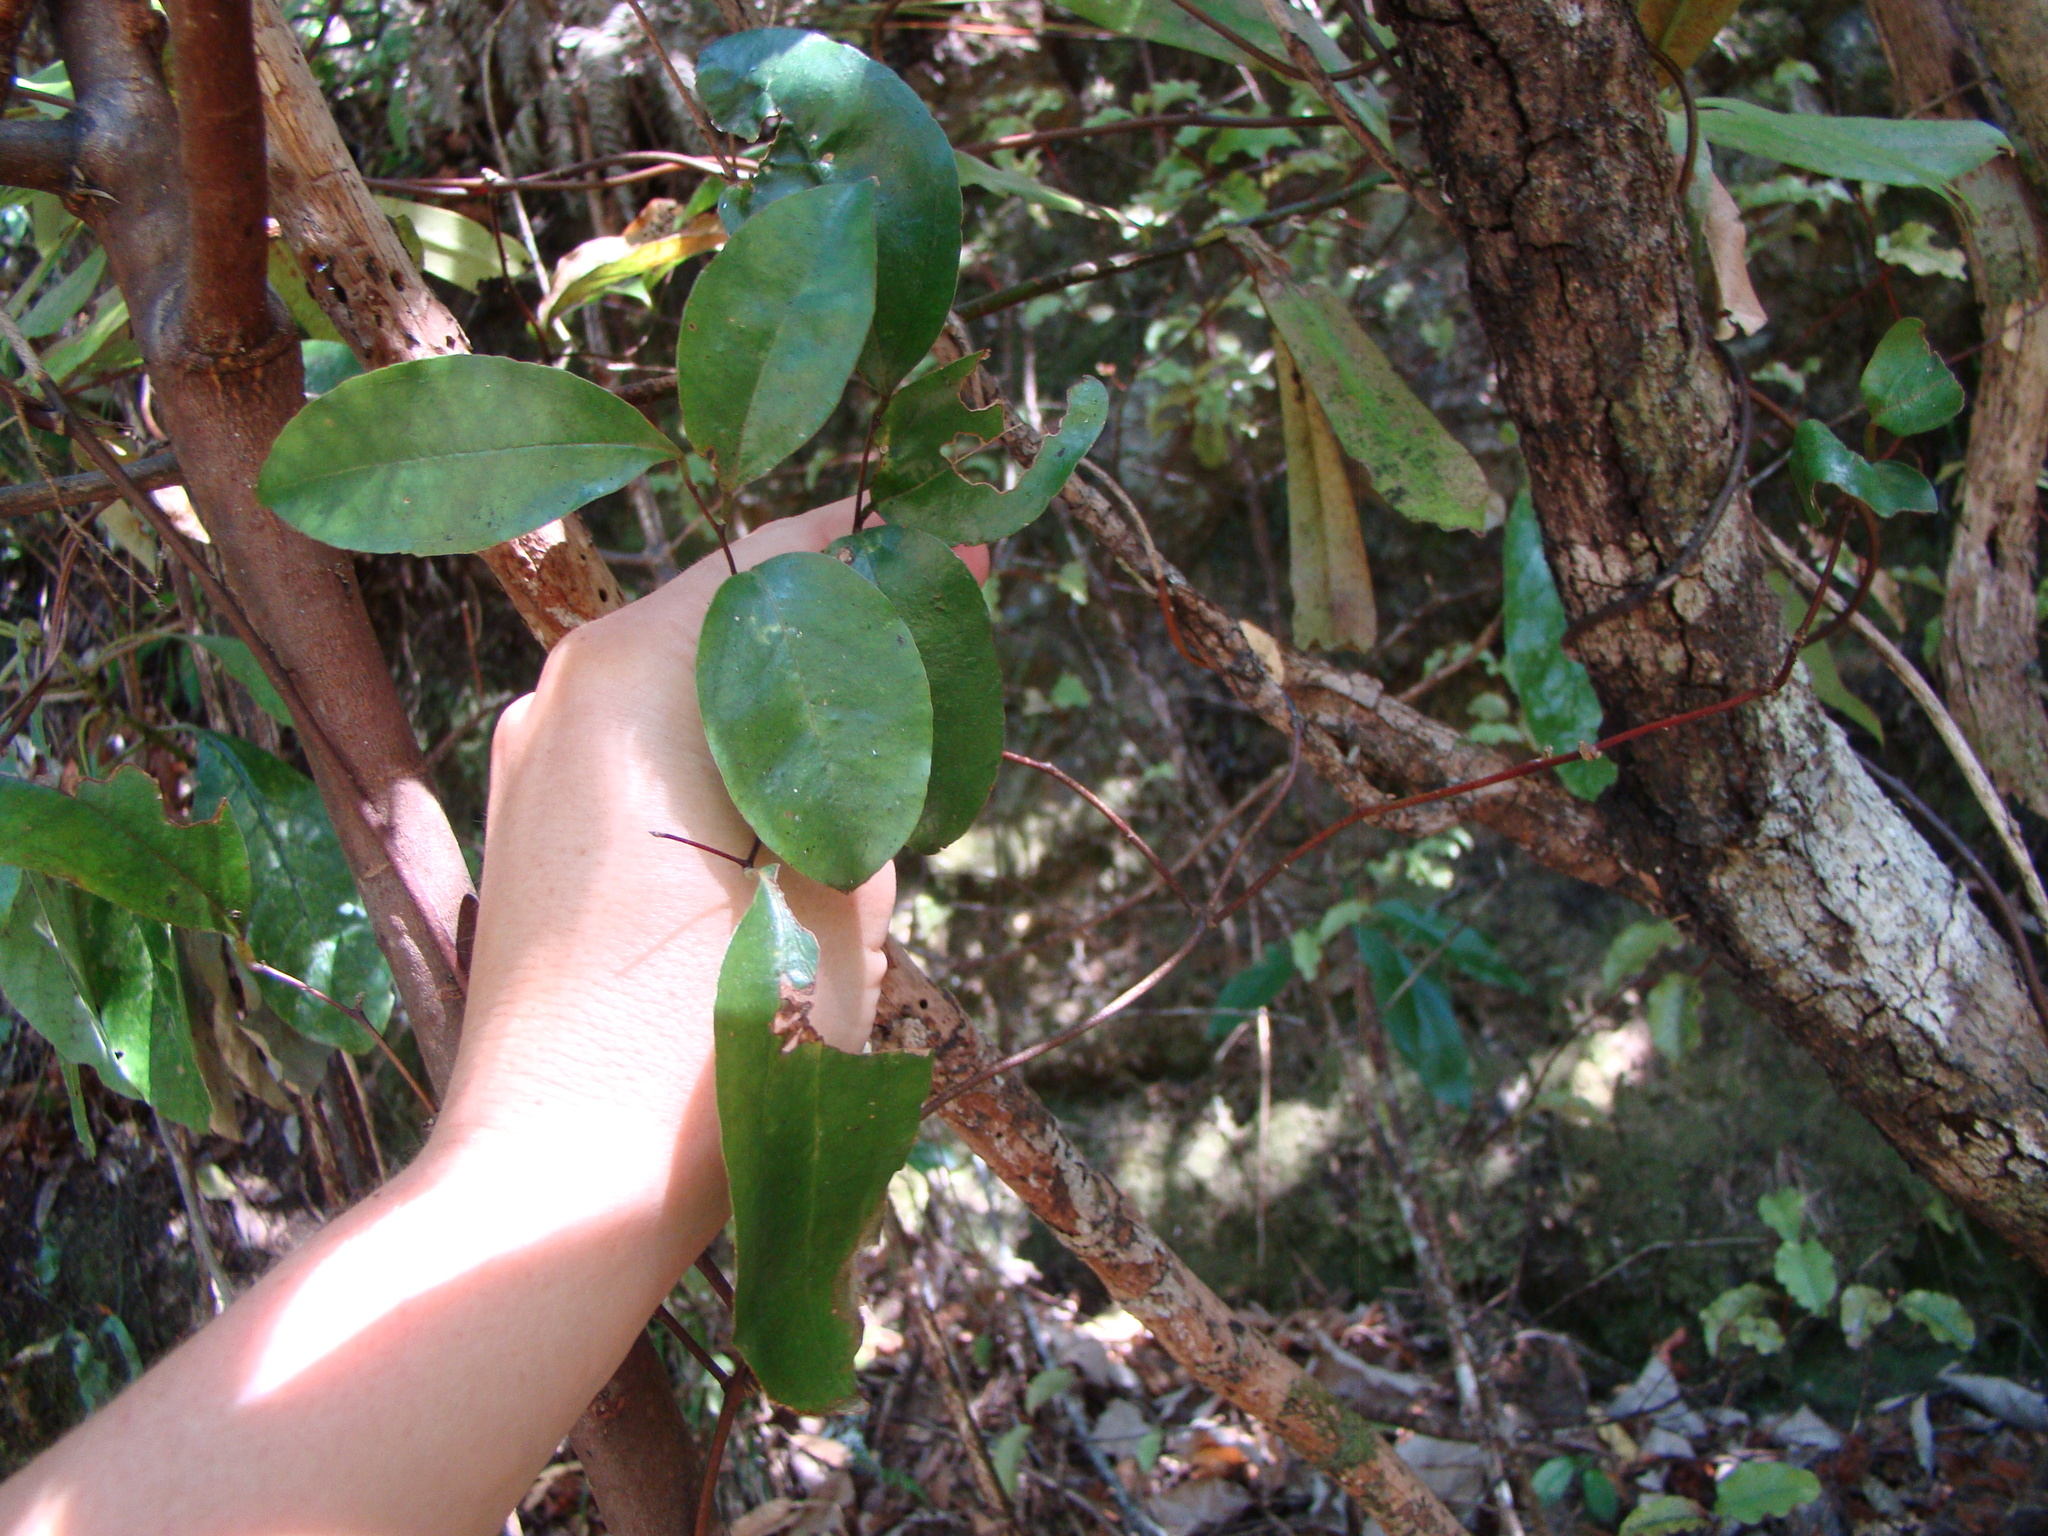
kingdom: Plantae
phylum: Tracheophyta
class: Liliopsida
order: Liliales
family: Ripogonaceae
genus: Ripogonum
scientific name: Ripogonum scandens
